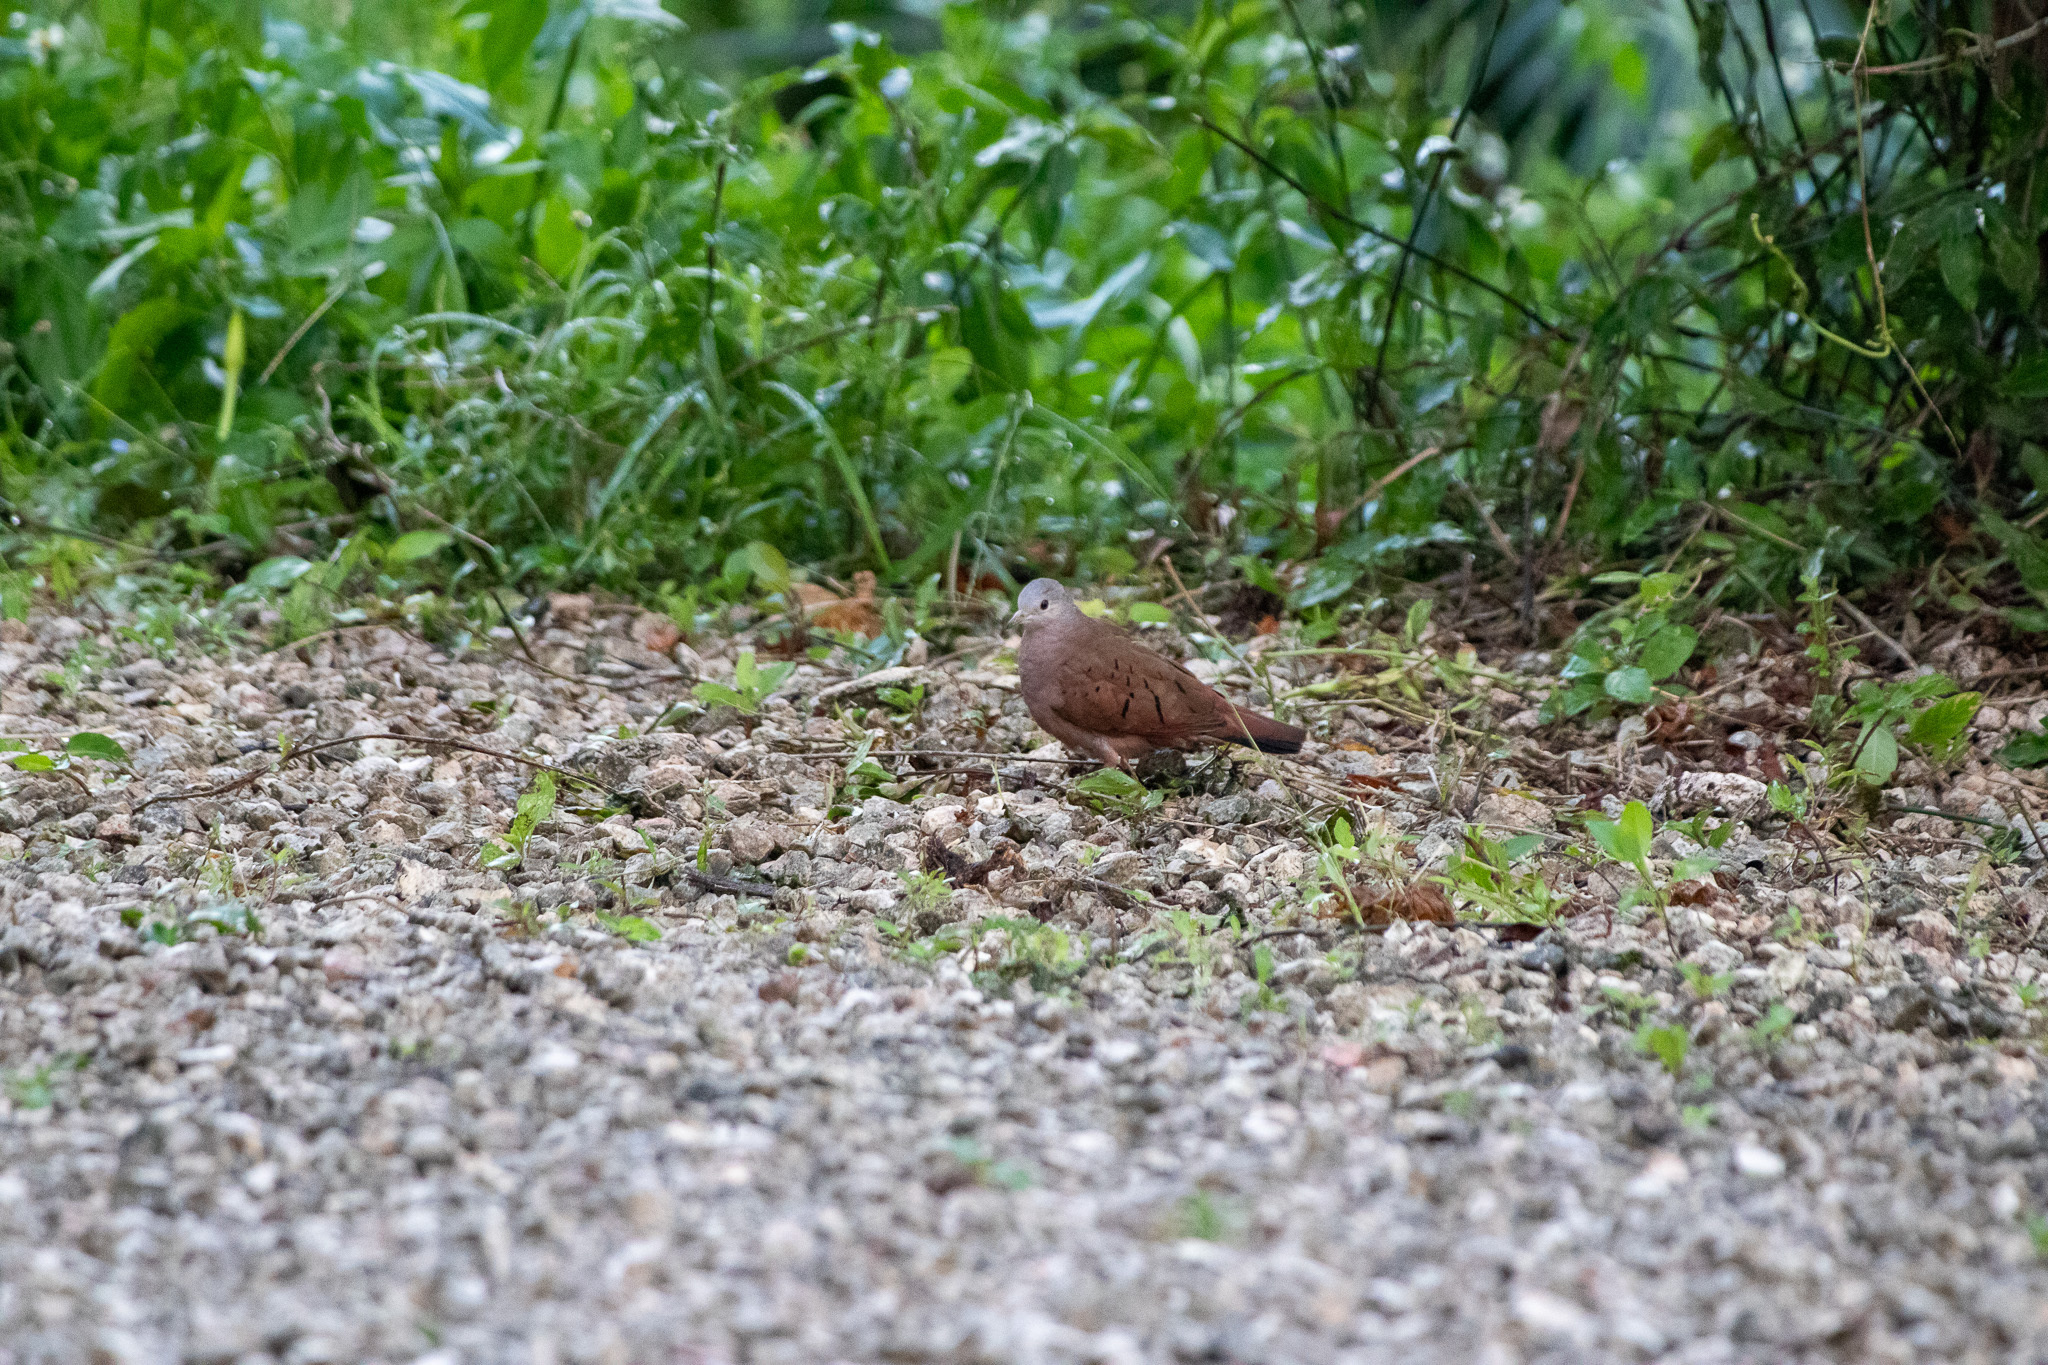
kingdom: Animalia
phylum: Chordata
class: Aves
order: Columbiformes
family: Columbidae
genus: Columbina
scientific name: Columbina talpacoti
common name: Ruddy ground dove
